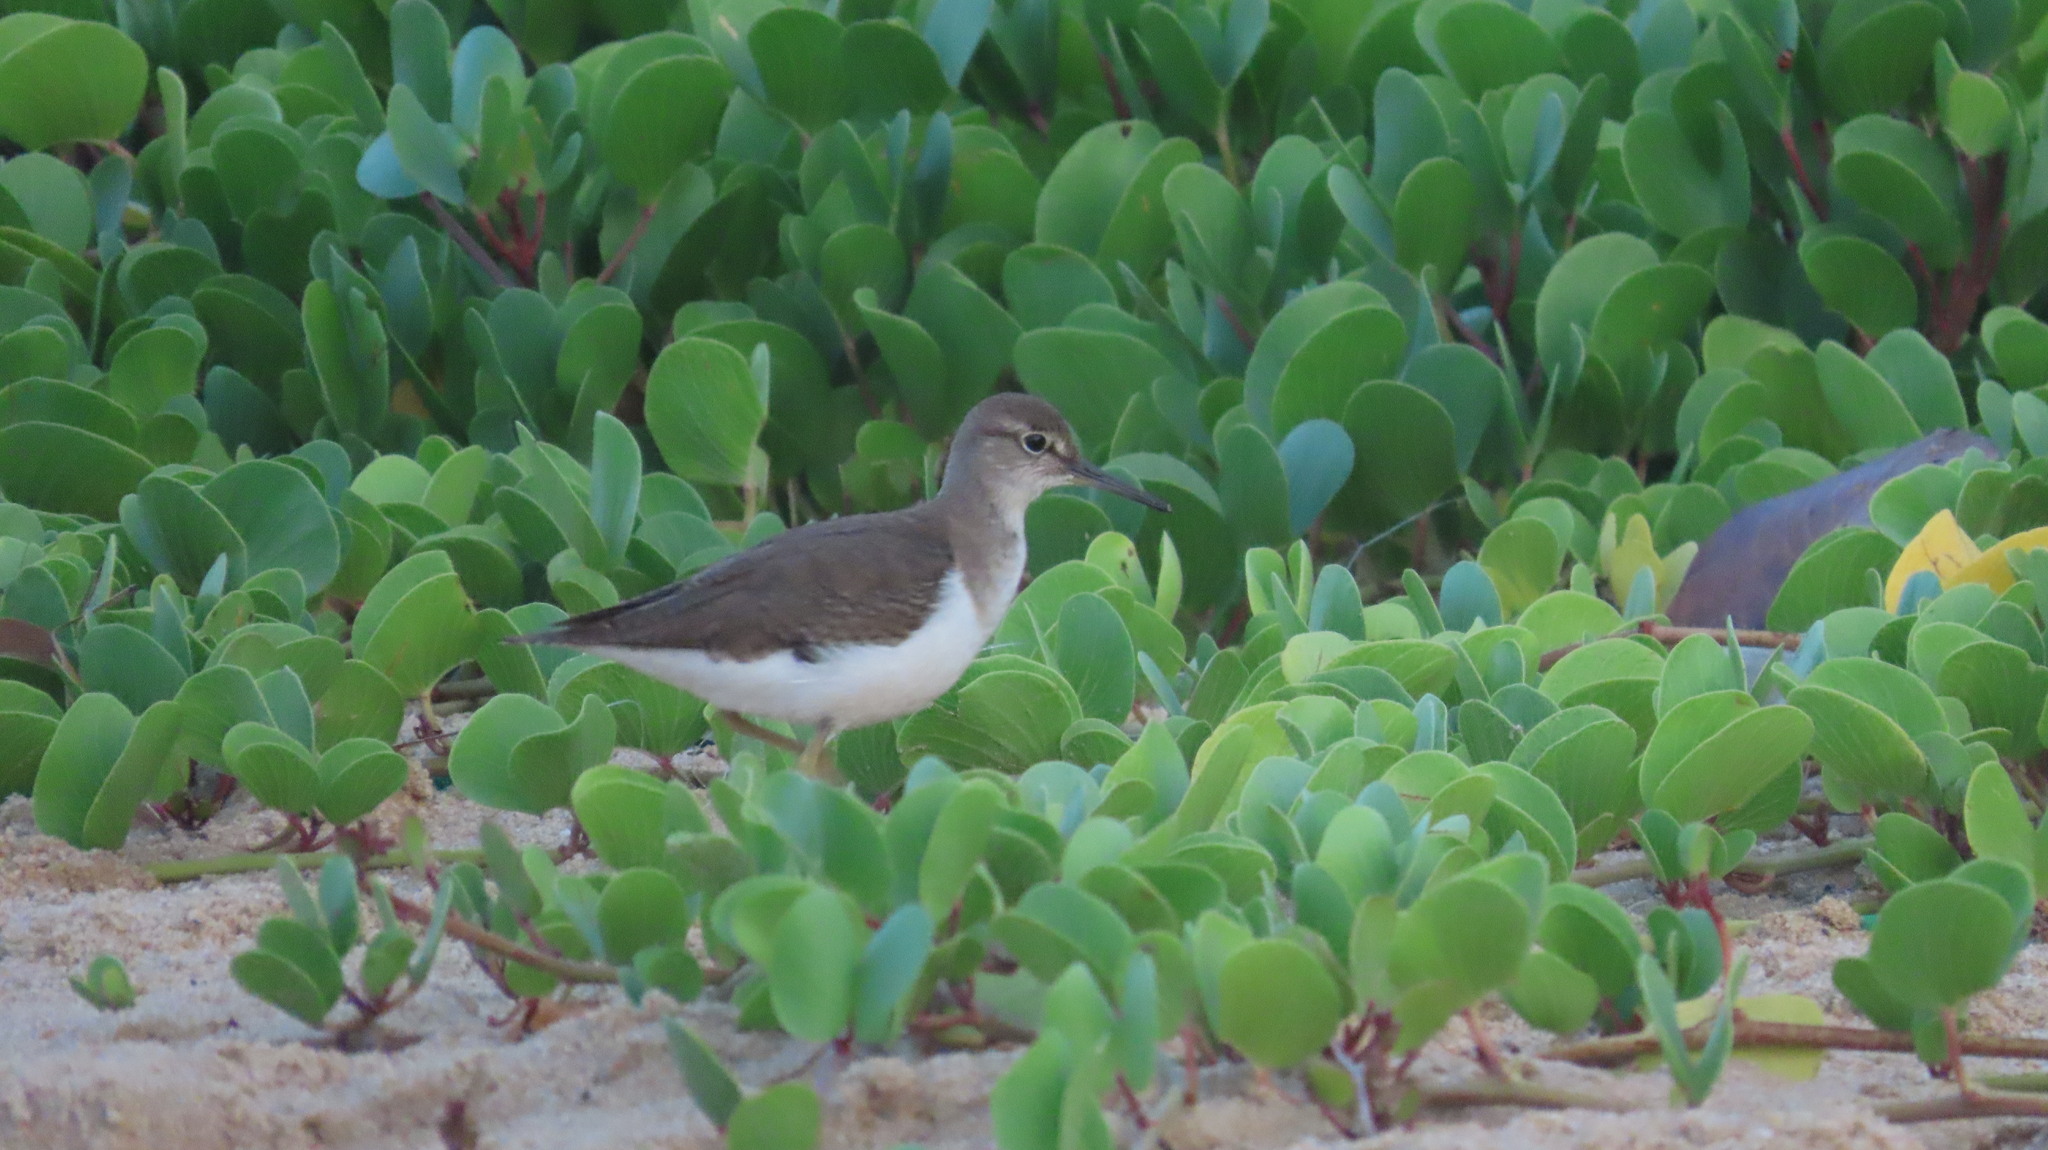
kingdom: Animalia
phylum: Chordata
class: Aves
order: Charadriiformes
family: Scolopacidae
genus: Actitis
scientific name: Actitis hypoleucos
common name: Common sandpiper
